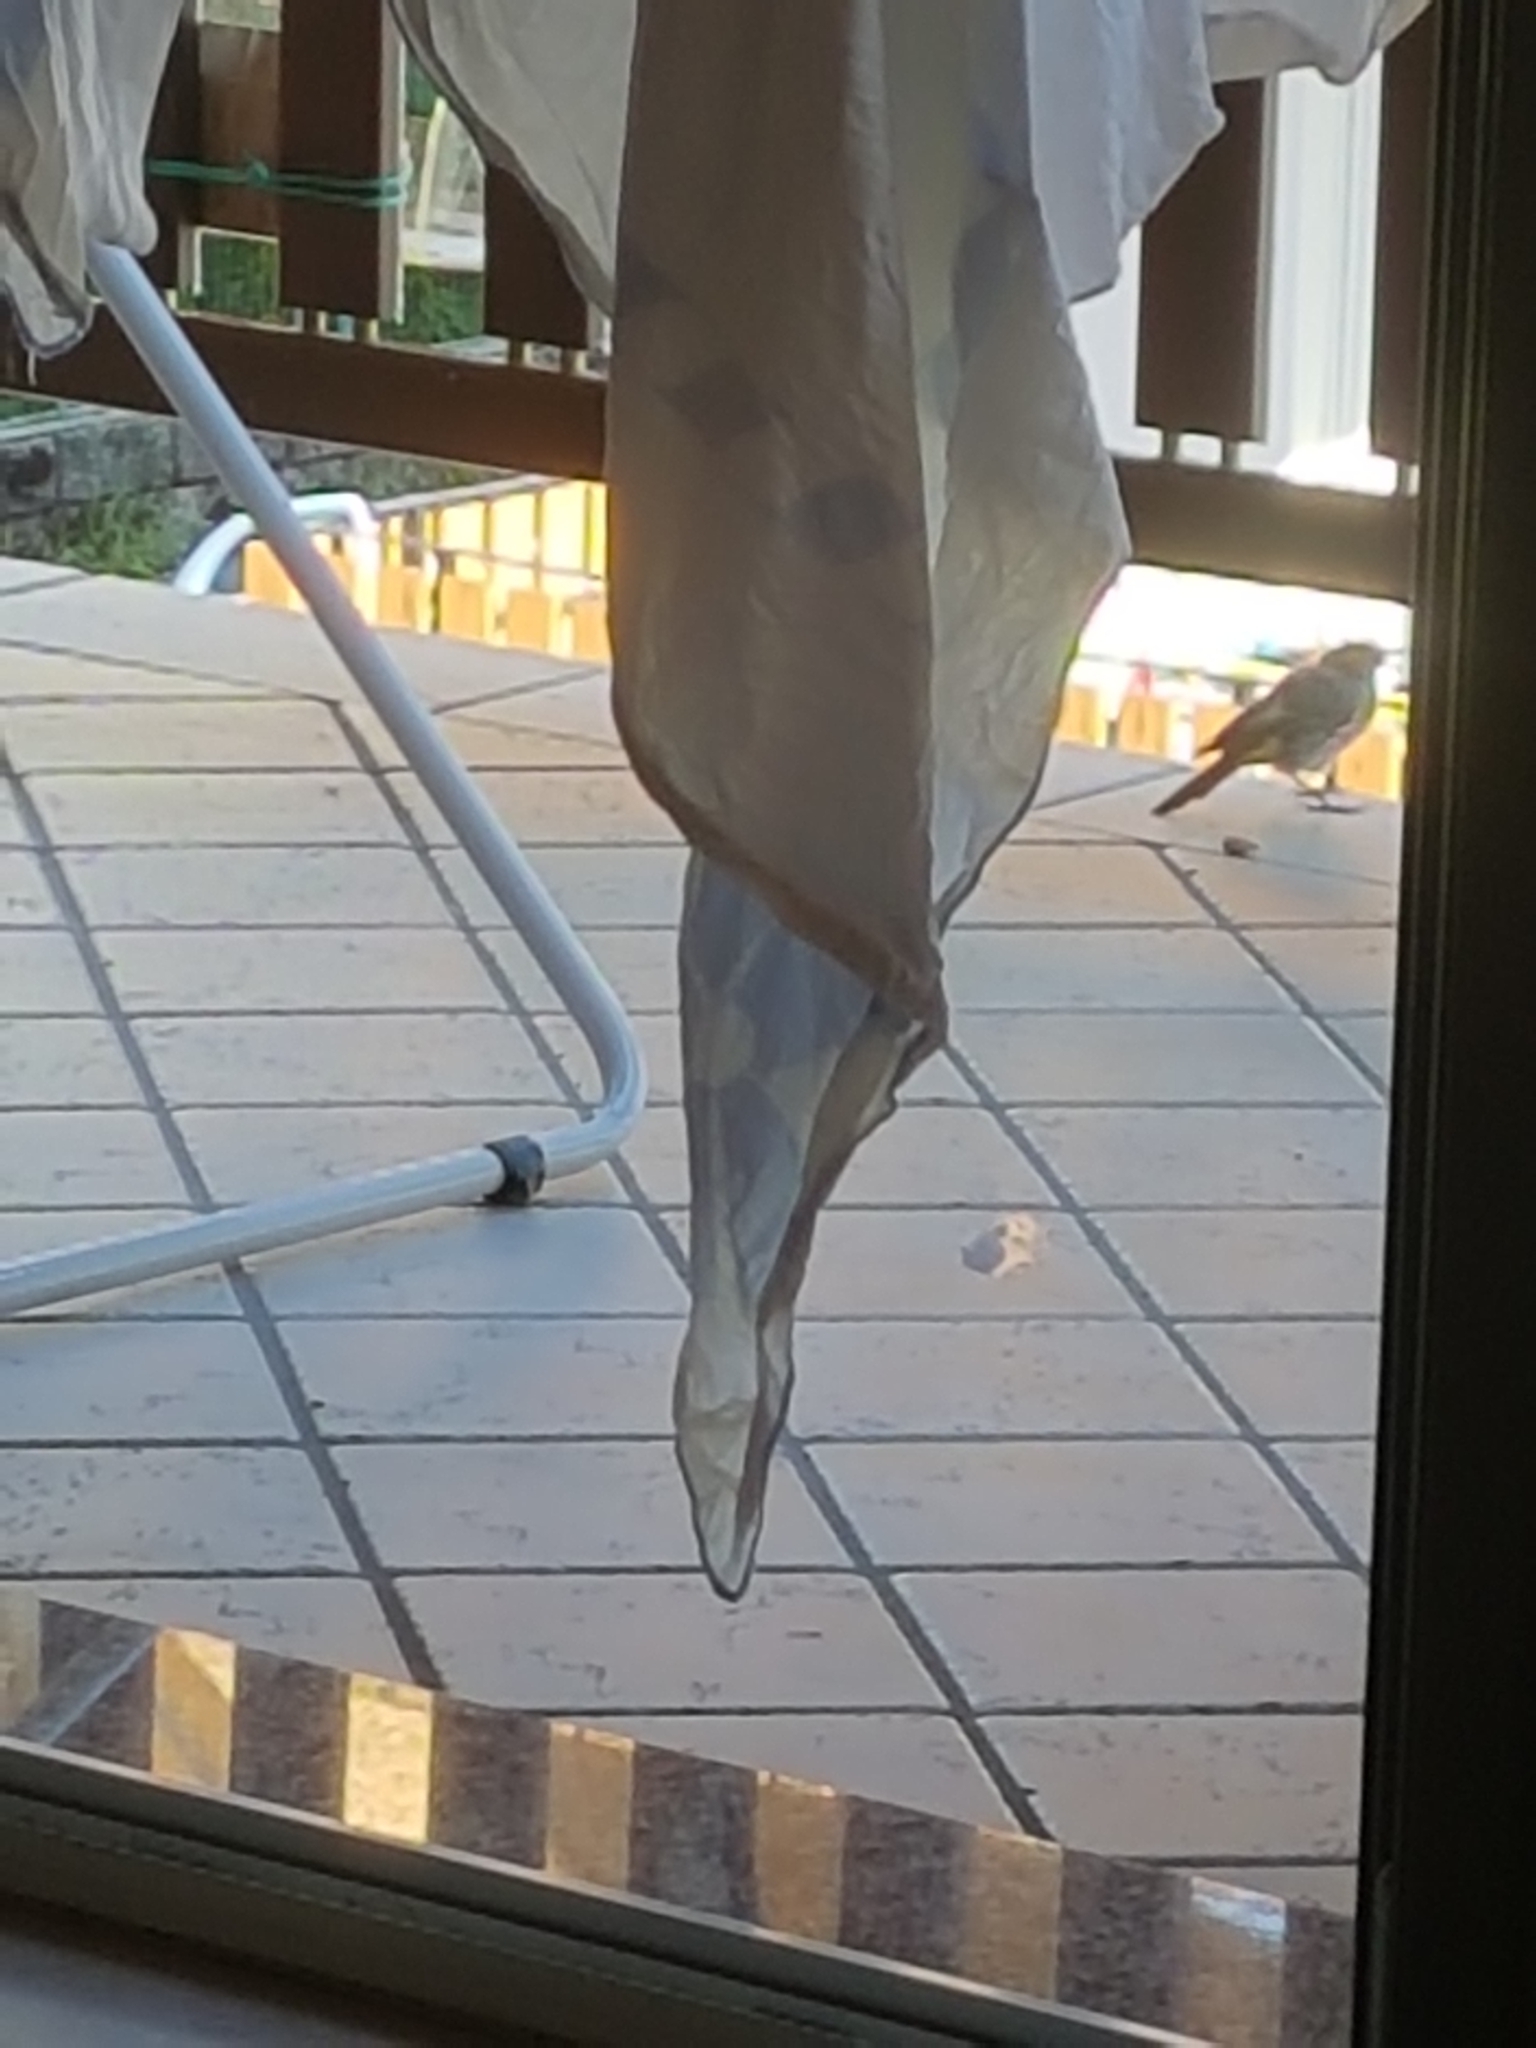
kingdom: Animalia
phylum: Chordata
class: Aves
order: Passeriformes
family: Muscicapidae
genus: Phoenicurus
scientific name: Phoenicurus ochruros
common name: Black redstart
